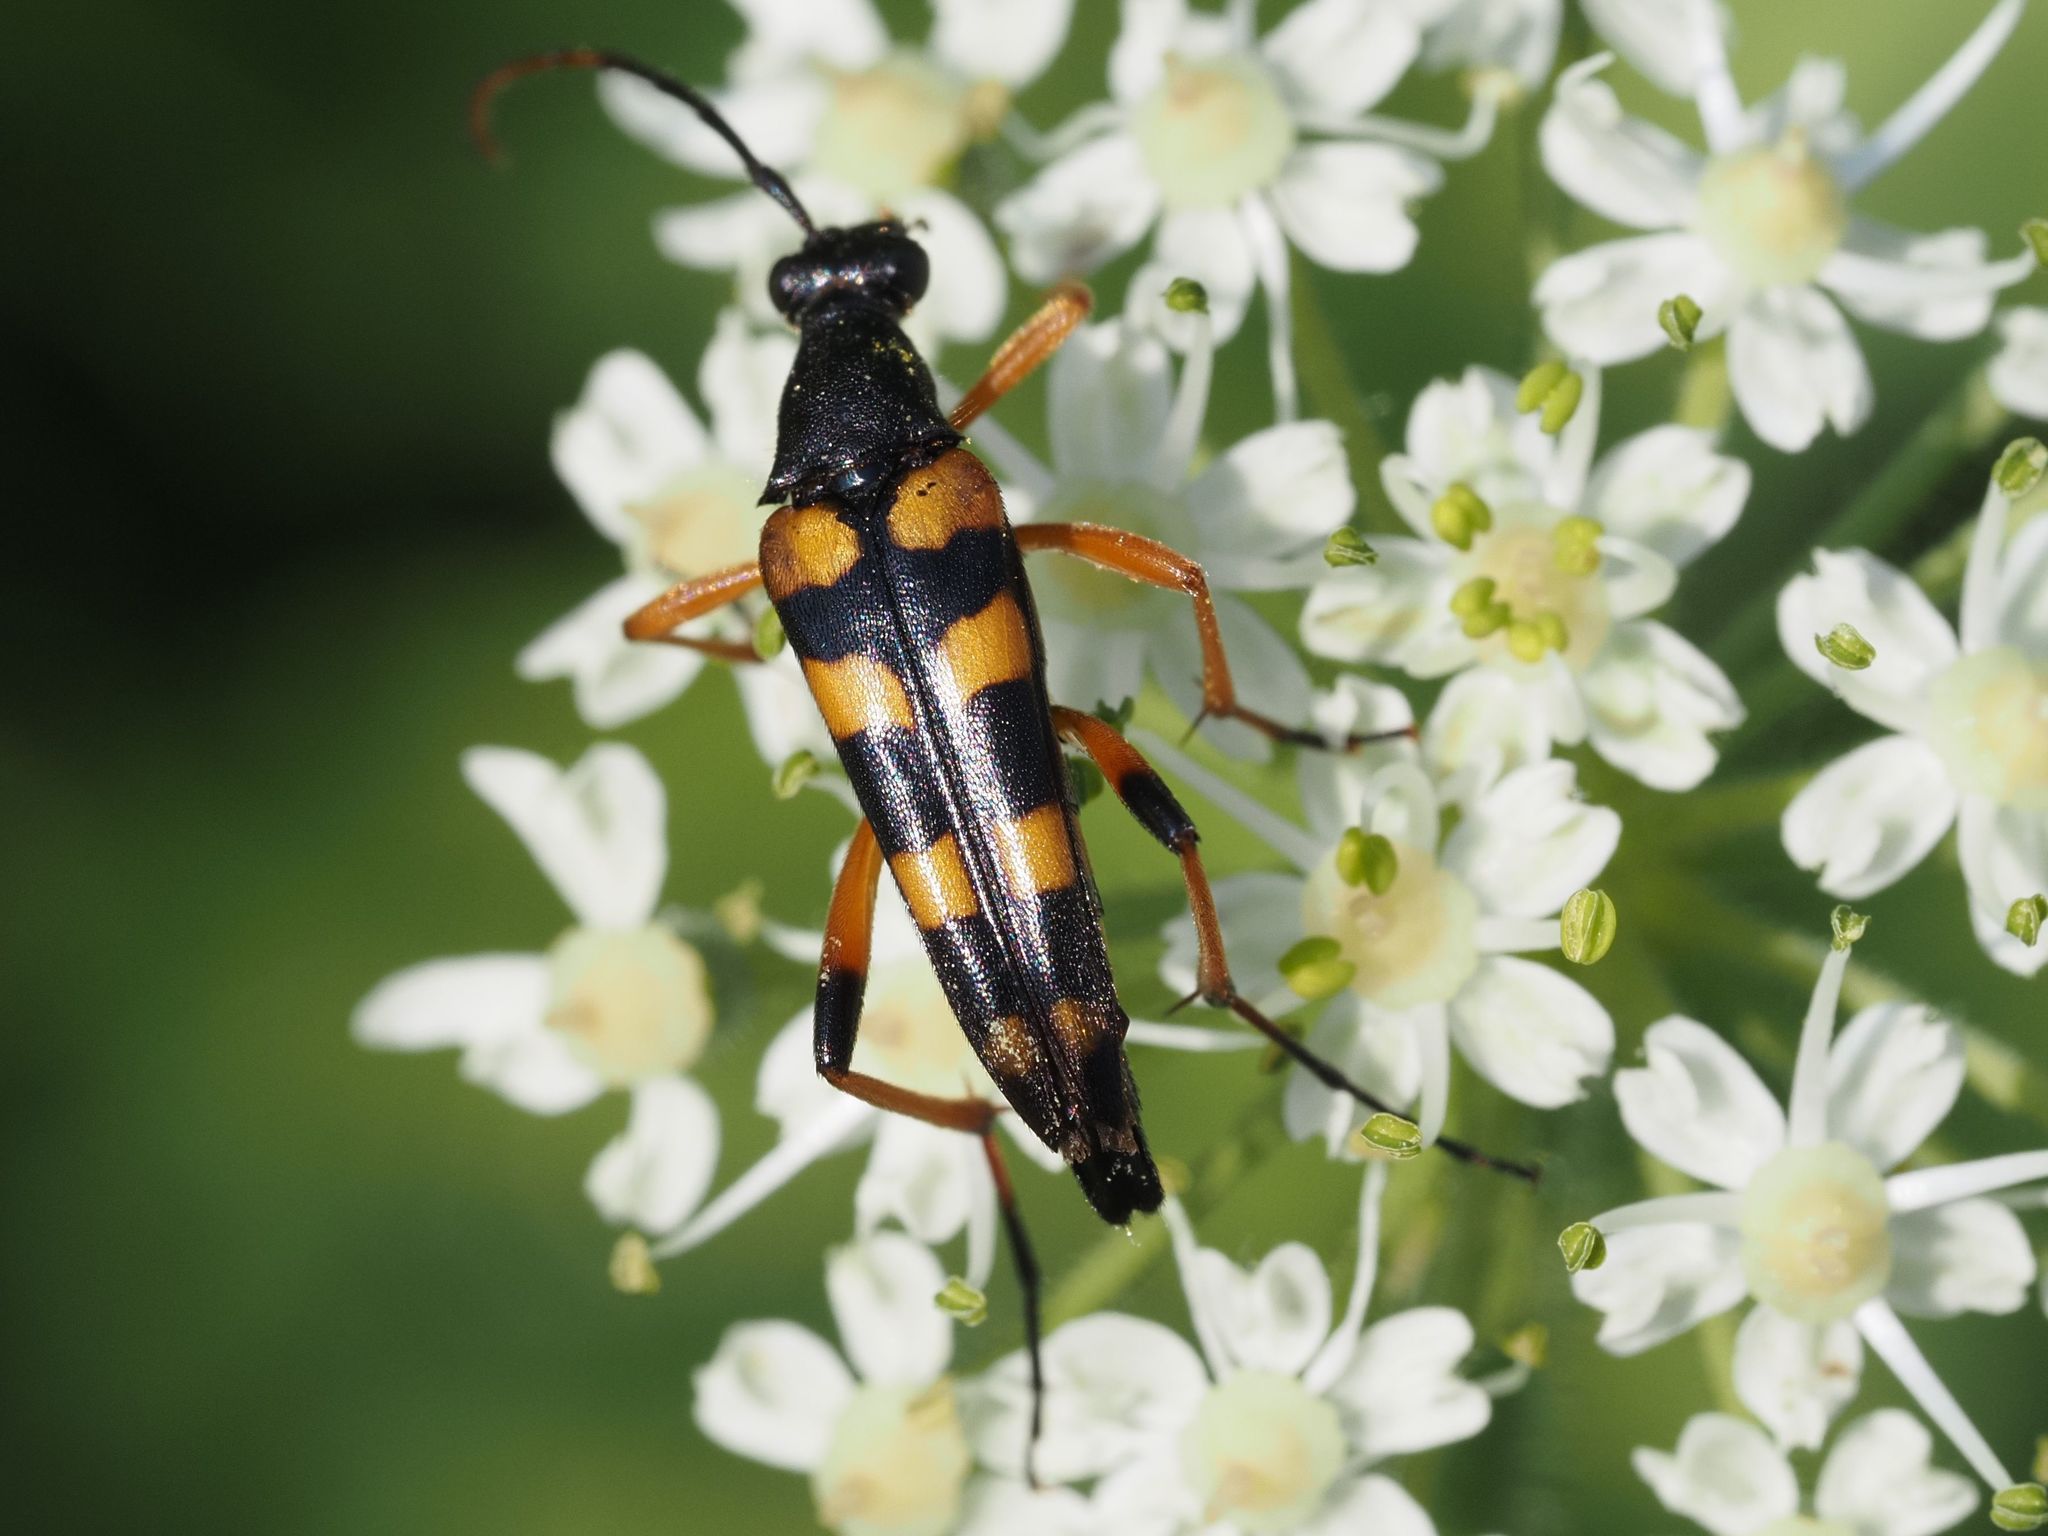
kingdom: Animalia
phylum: Arthropoda
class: Insecta
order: Coleoptera
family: Cerambycidae
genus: Strangalia
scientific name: Strangalia attenuata
